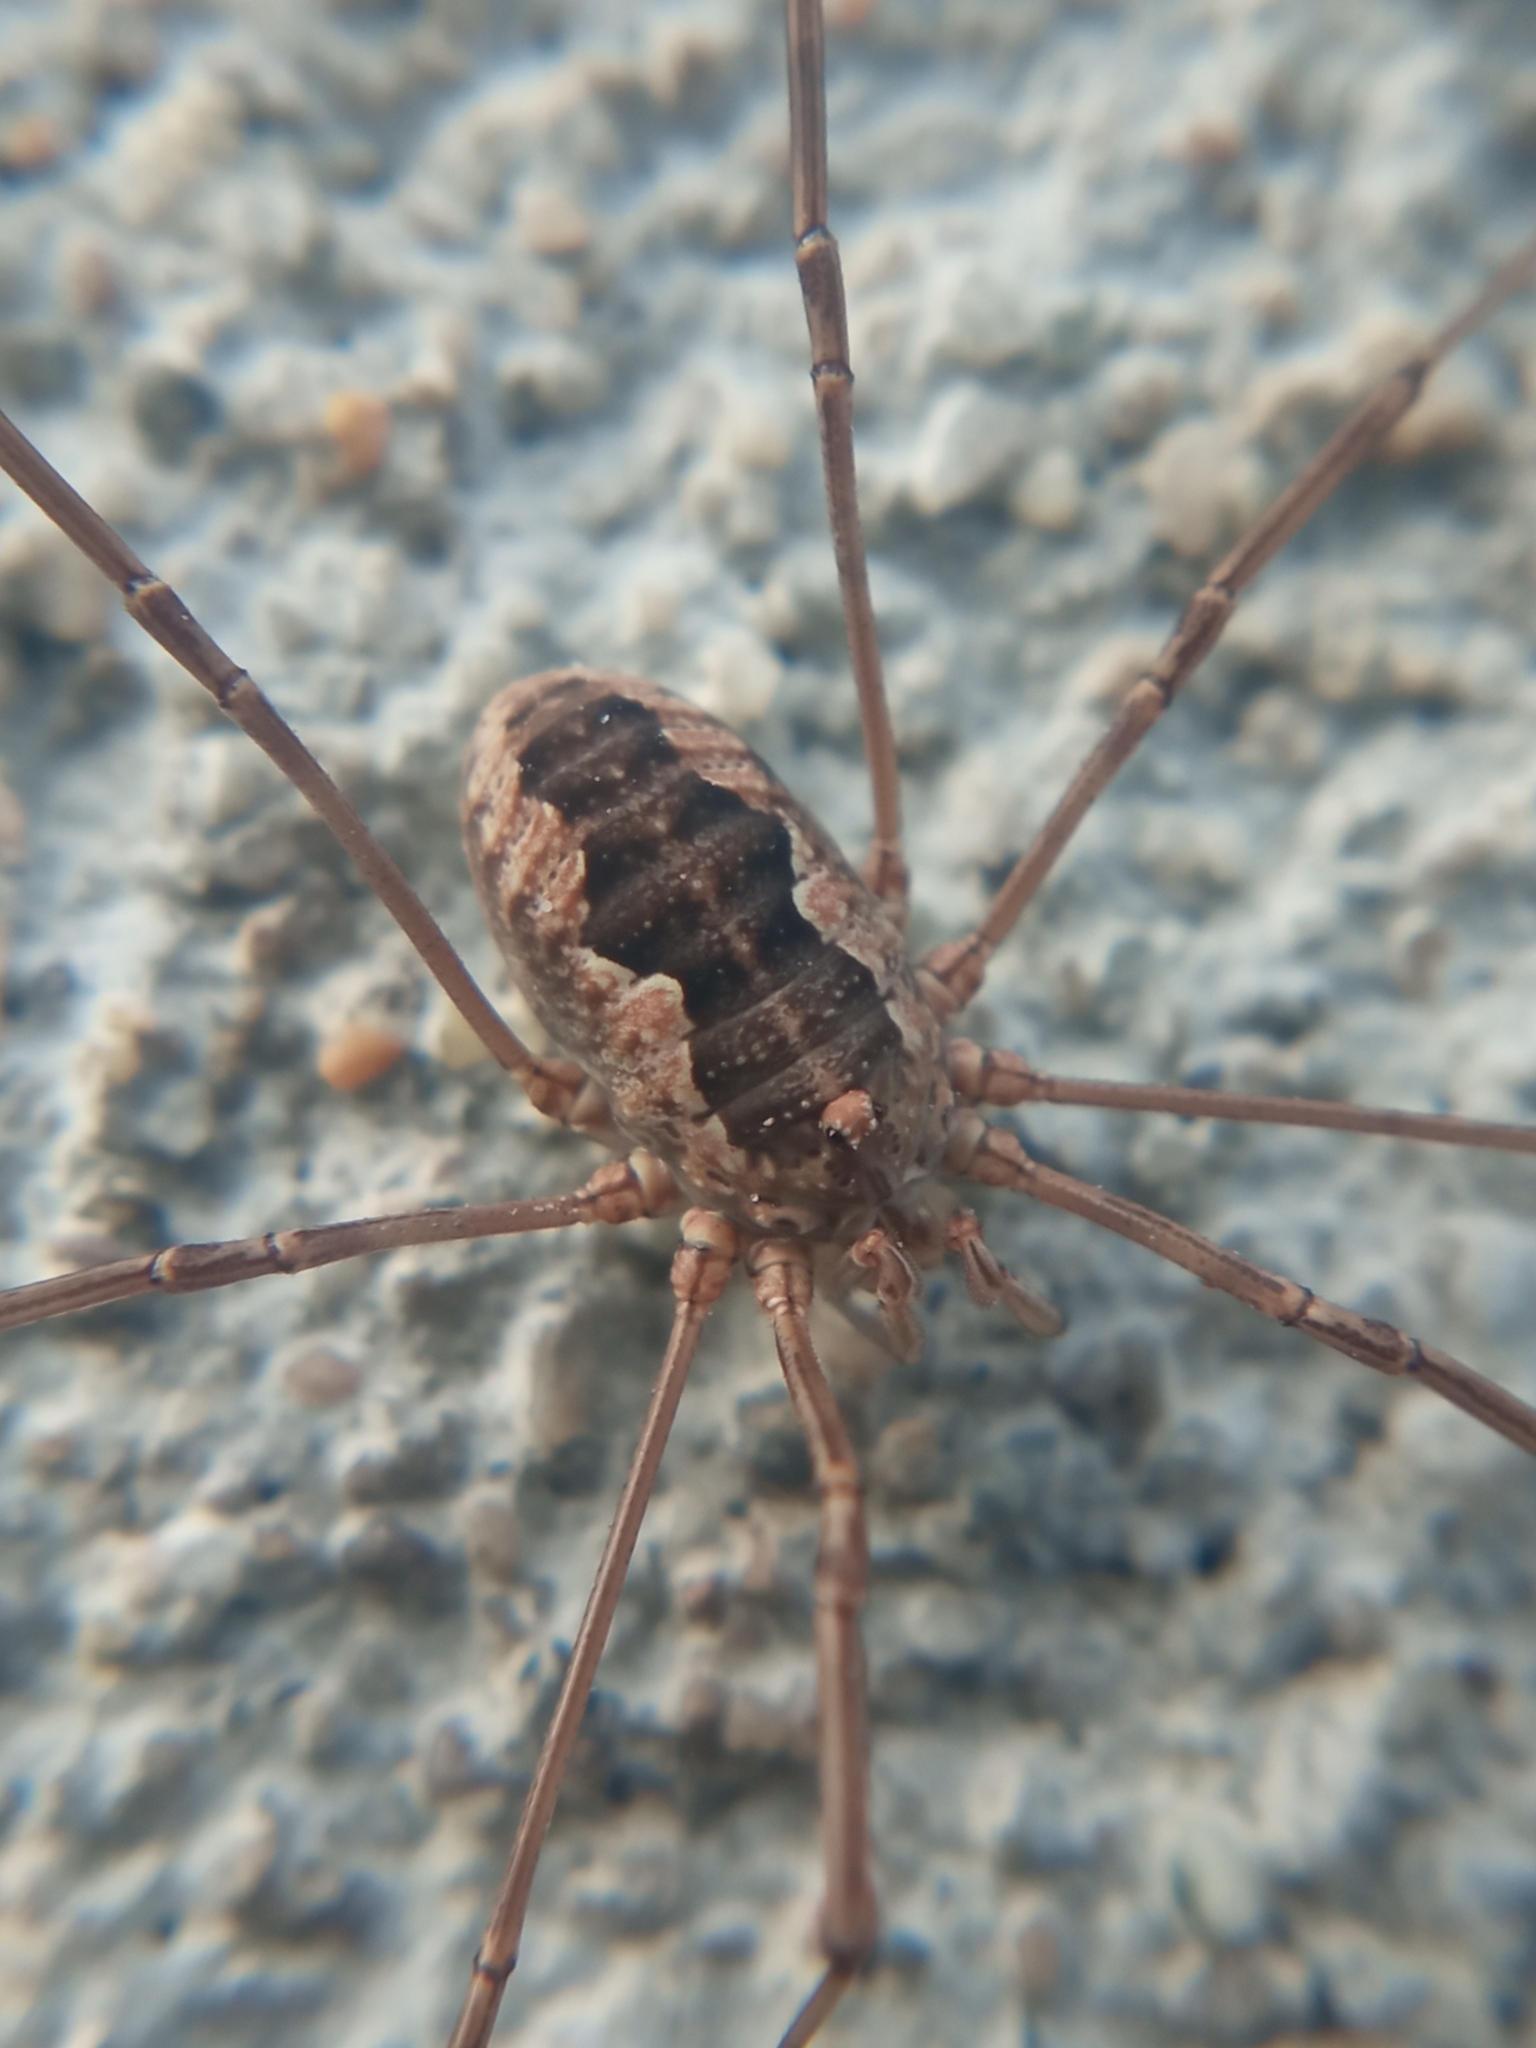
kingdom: Animalia
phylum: Arthropoda
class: Arachnida
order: Opiliones
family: Phalangiidae
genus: Phalangium
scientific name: Phalangium opilio
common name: Daddy longleg
